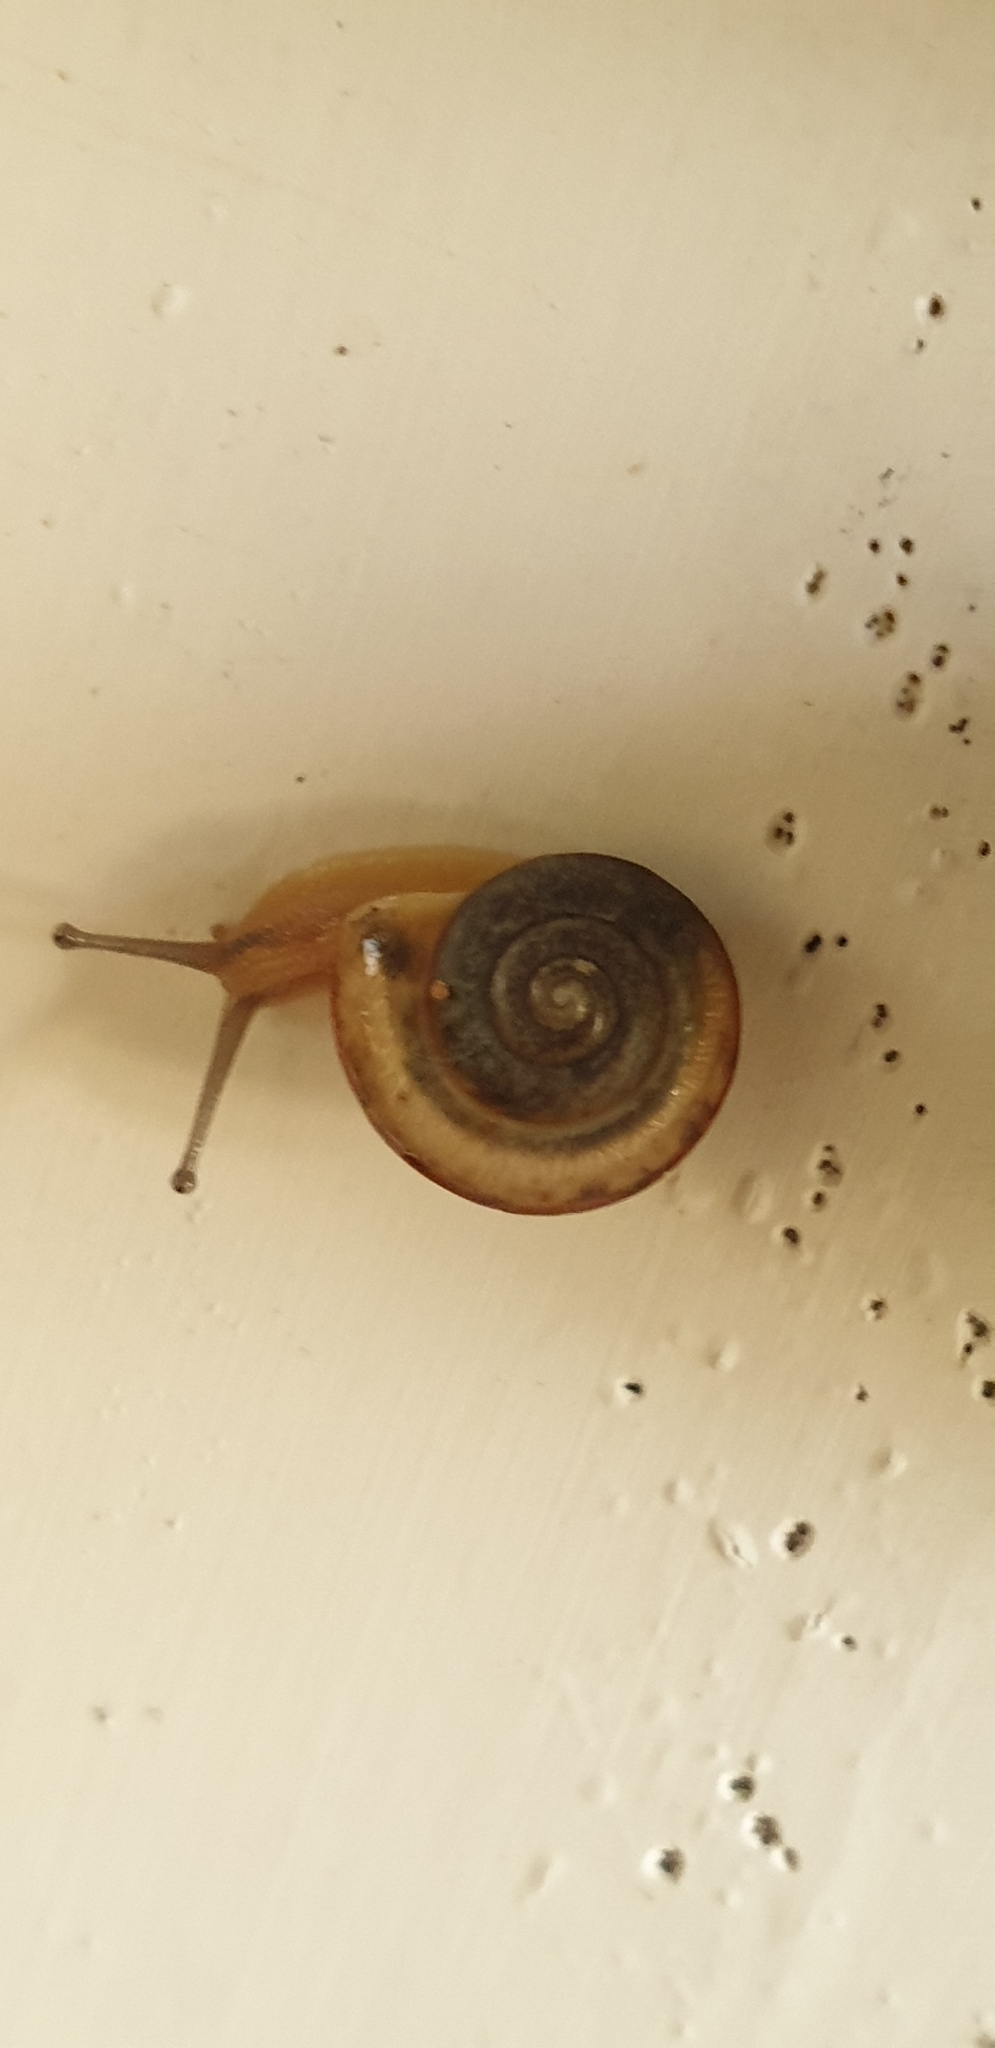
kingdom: Animalia
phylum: Mollusca
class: Gastropoda
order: Stylommatophora
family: Camaenidae
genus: Bradybaena
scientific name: Bradybaena similaris
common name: Asian trampsnail
